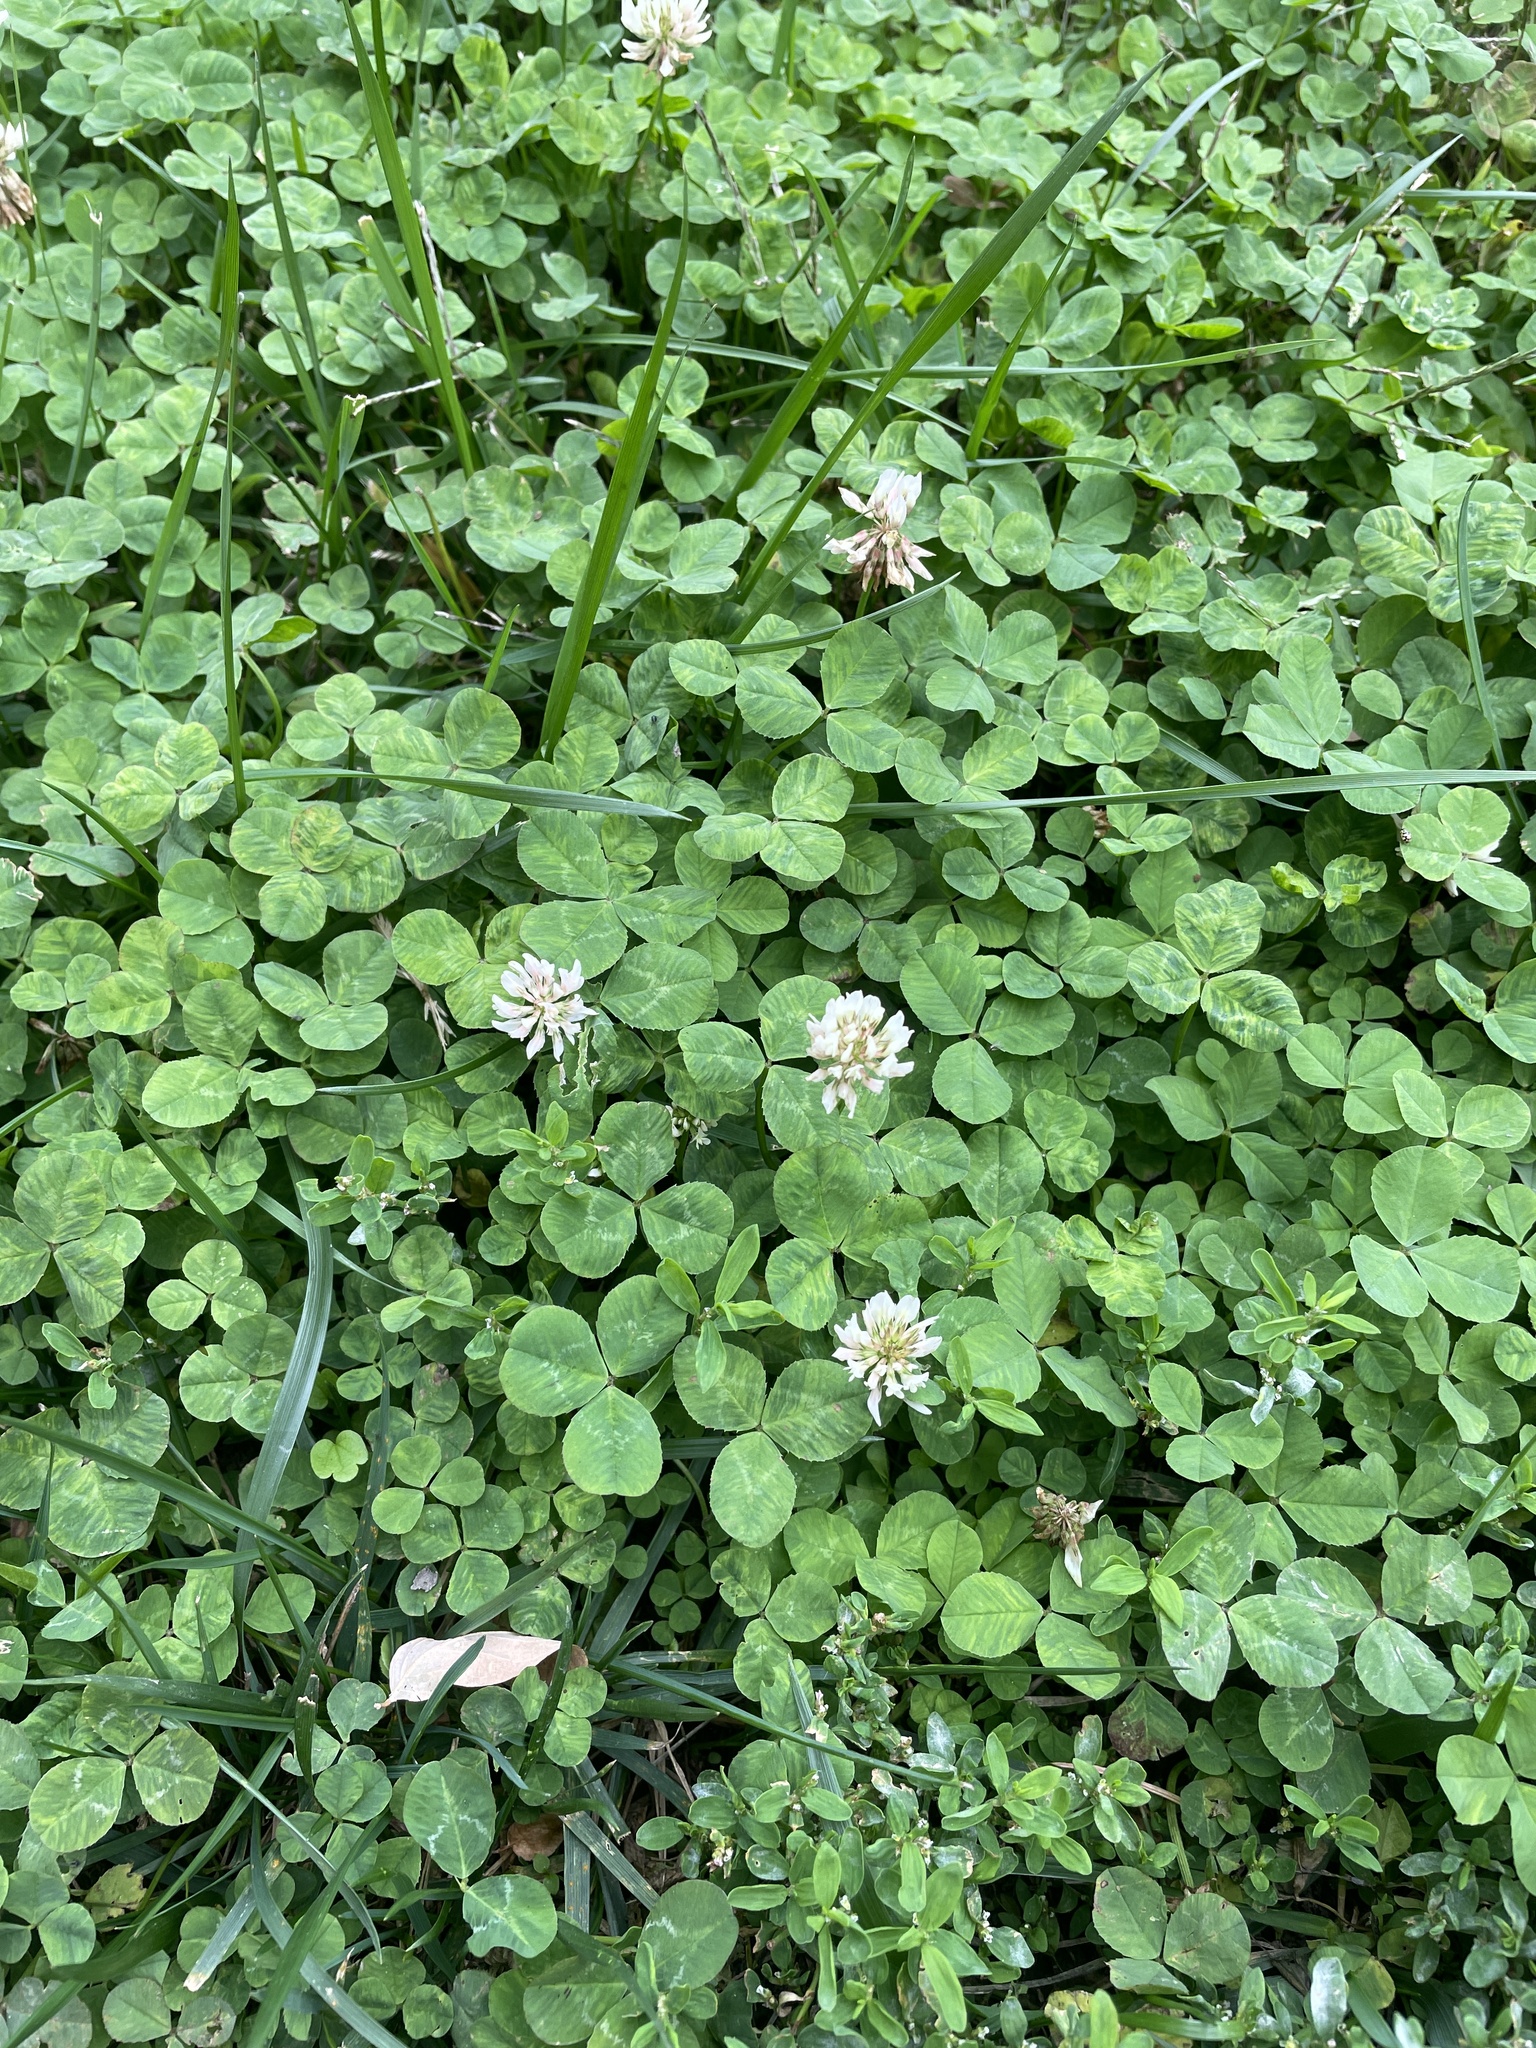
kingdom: Plantae
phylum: Tracheophyta
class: Magnoliopsida
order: Fabales
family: Fabaceae
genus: Trifolium
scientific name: Trifolium repens
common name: White clover
